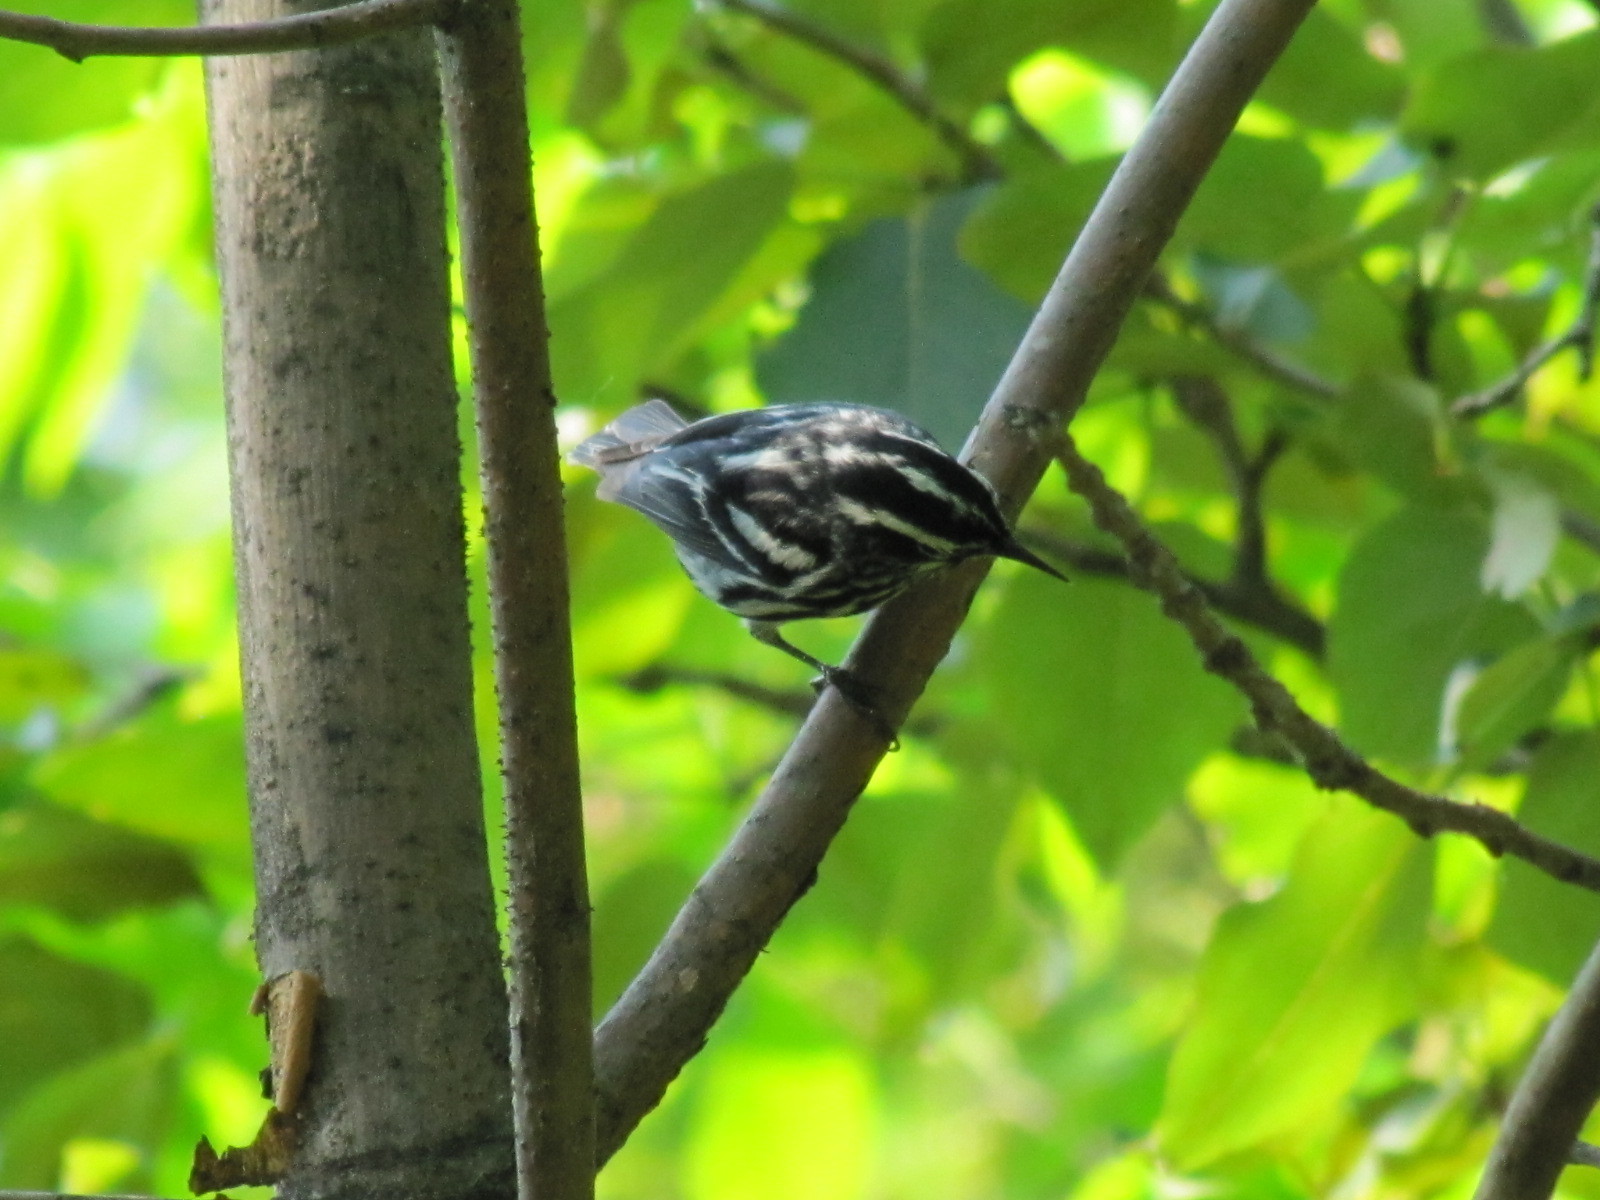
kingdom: Animalia
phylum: Chordata
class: Aves
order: Passeriformes
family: Parulidae
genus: Mniotilta
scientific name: Mniotilta varia
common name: Black-and-white warbler
